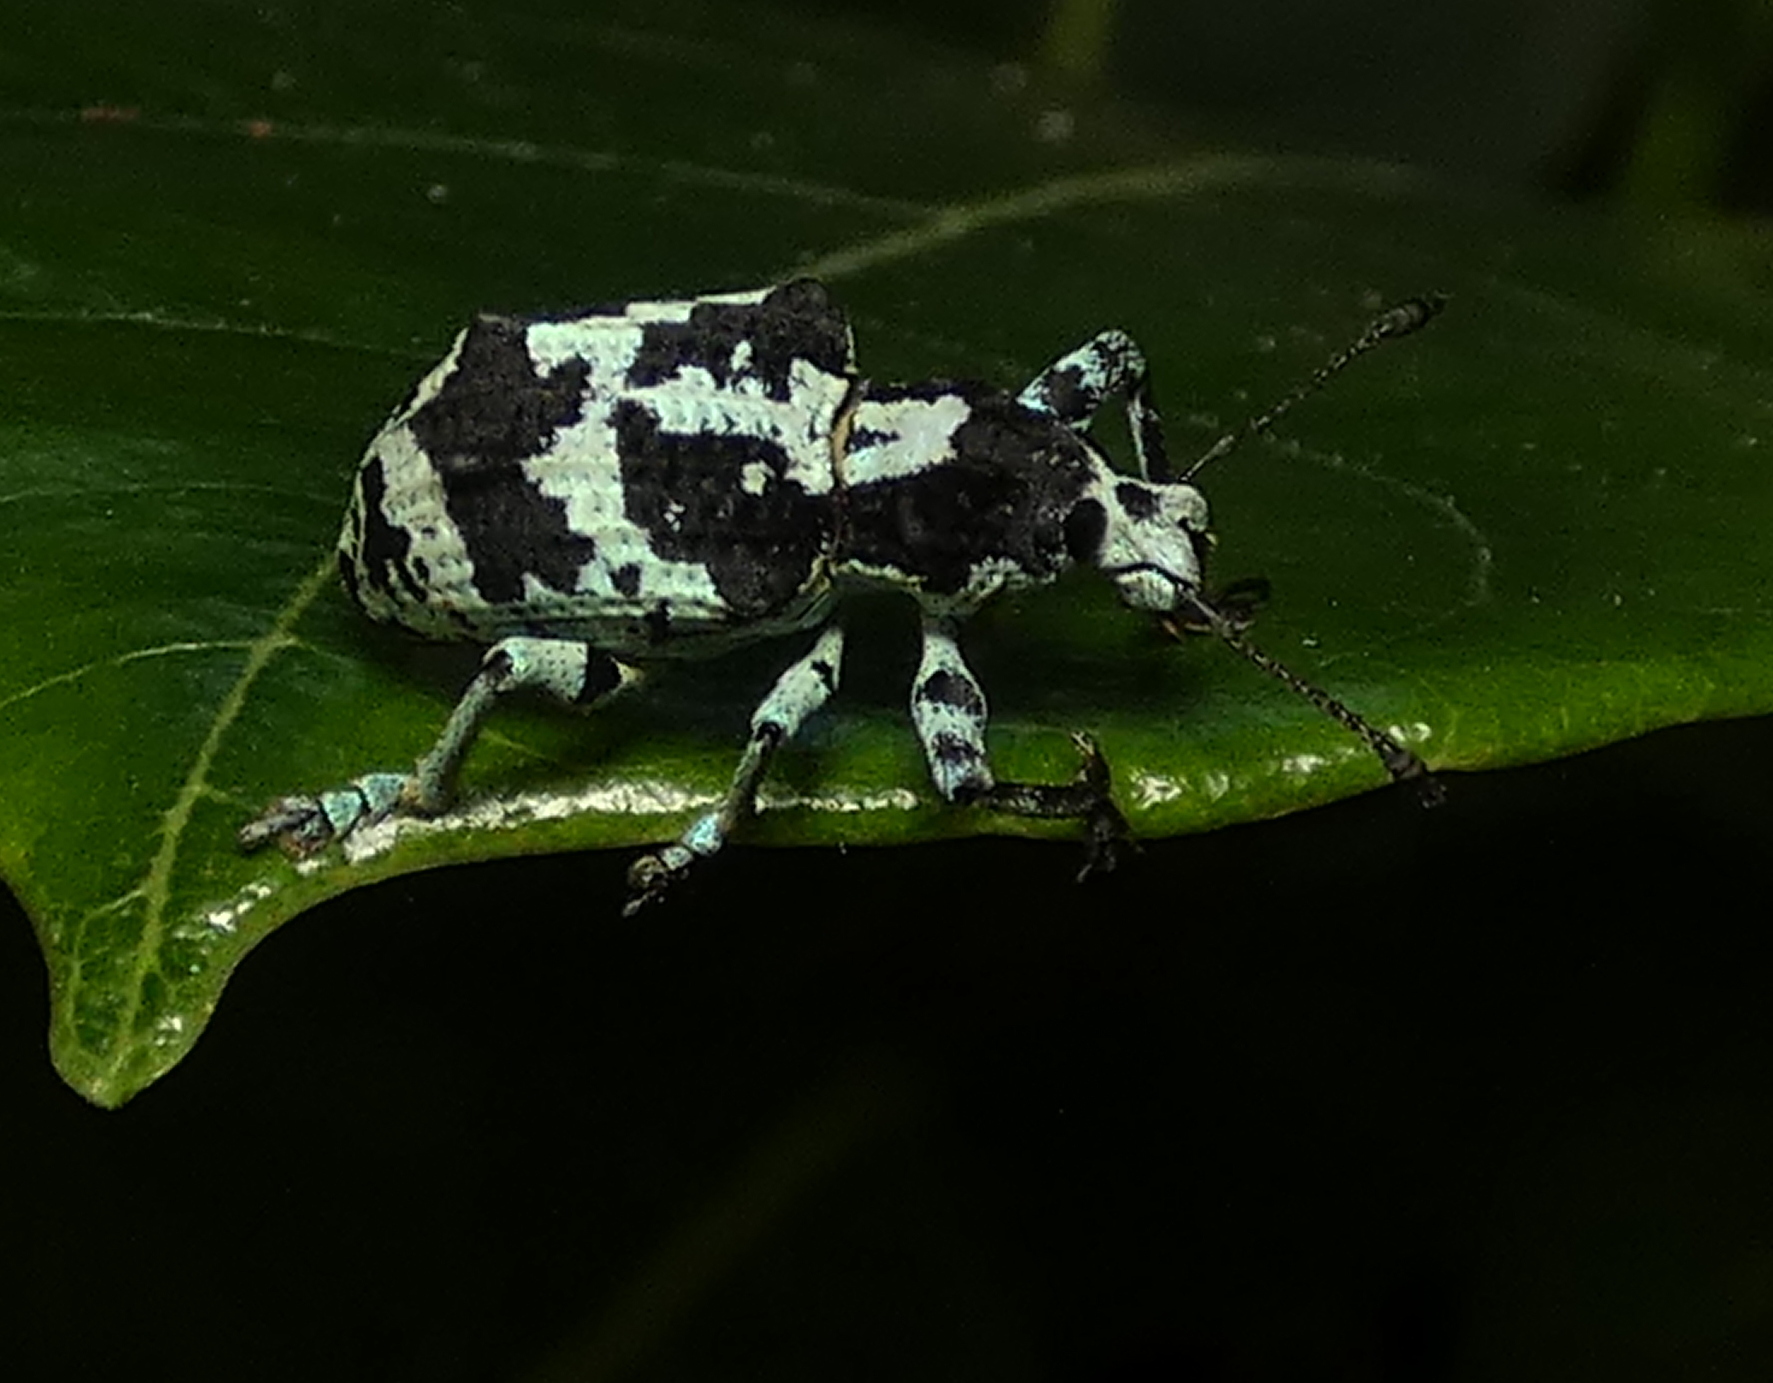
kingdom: Animalia
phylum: Arthropoda
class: Insecta
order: Coleoptera
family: Curculionidae
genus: Rhigus
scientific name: Rhigus dejeanii
